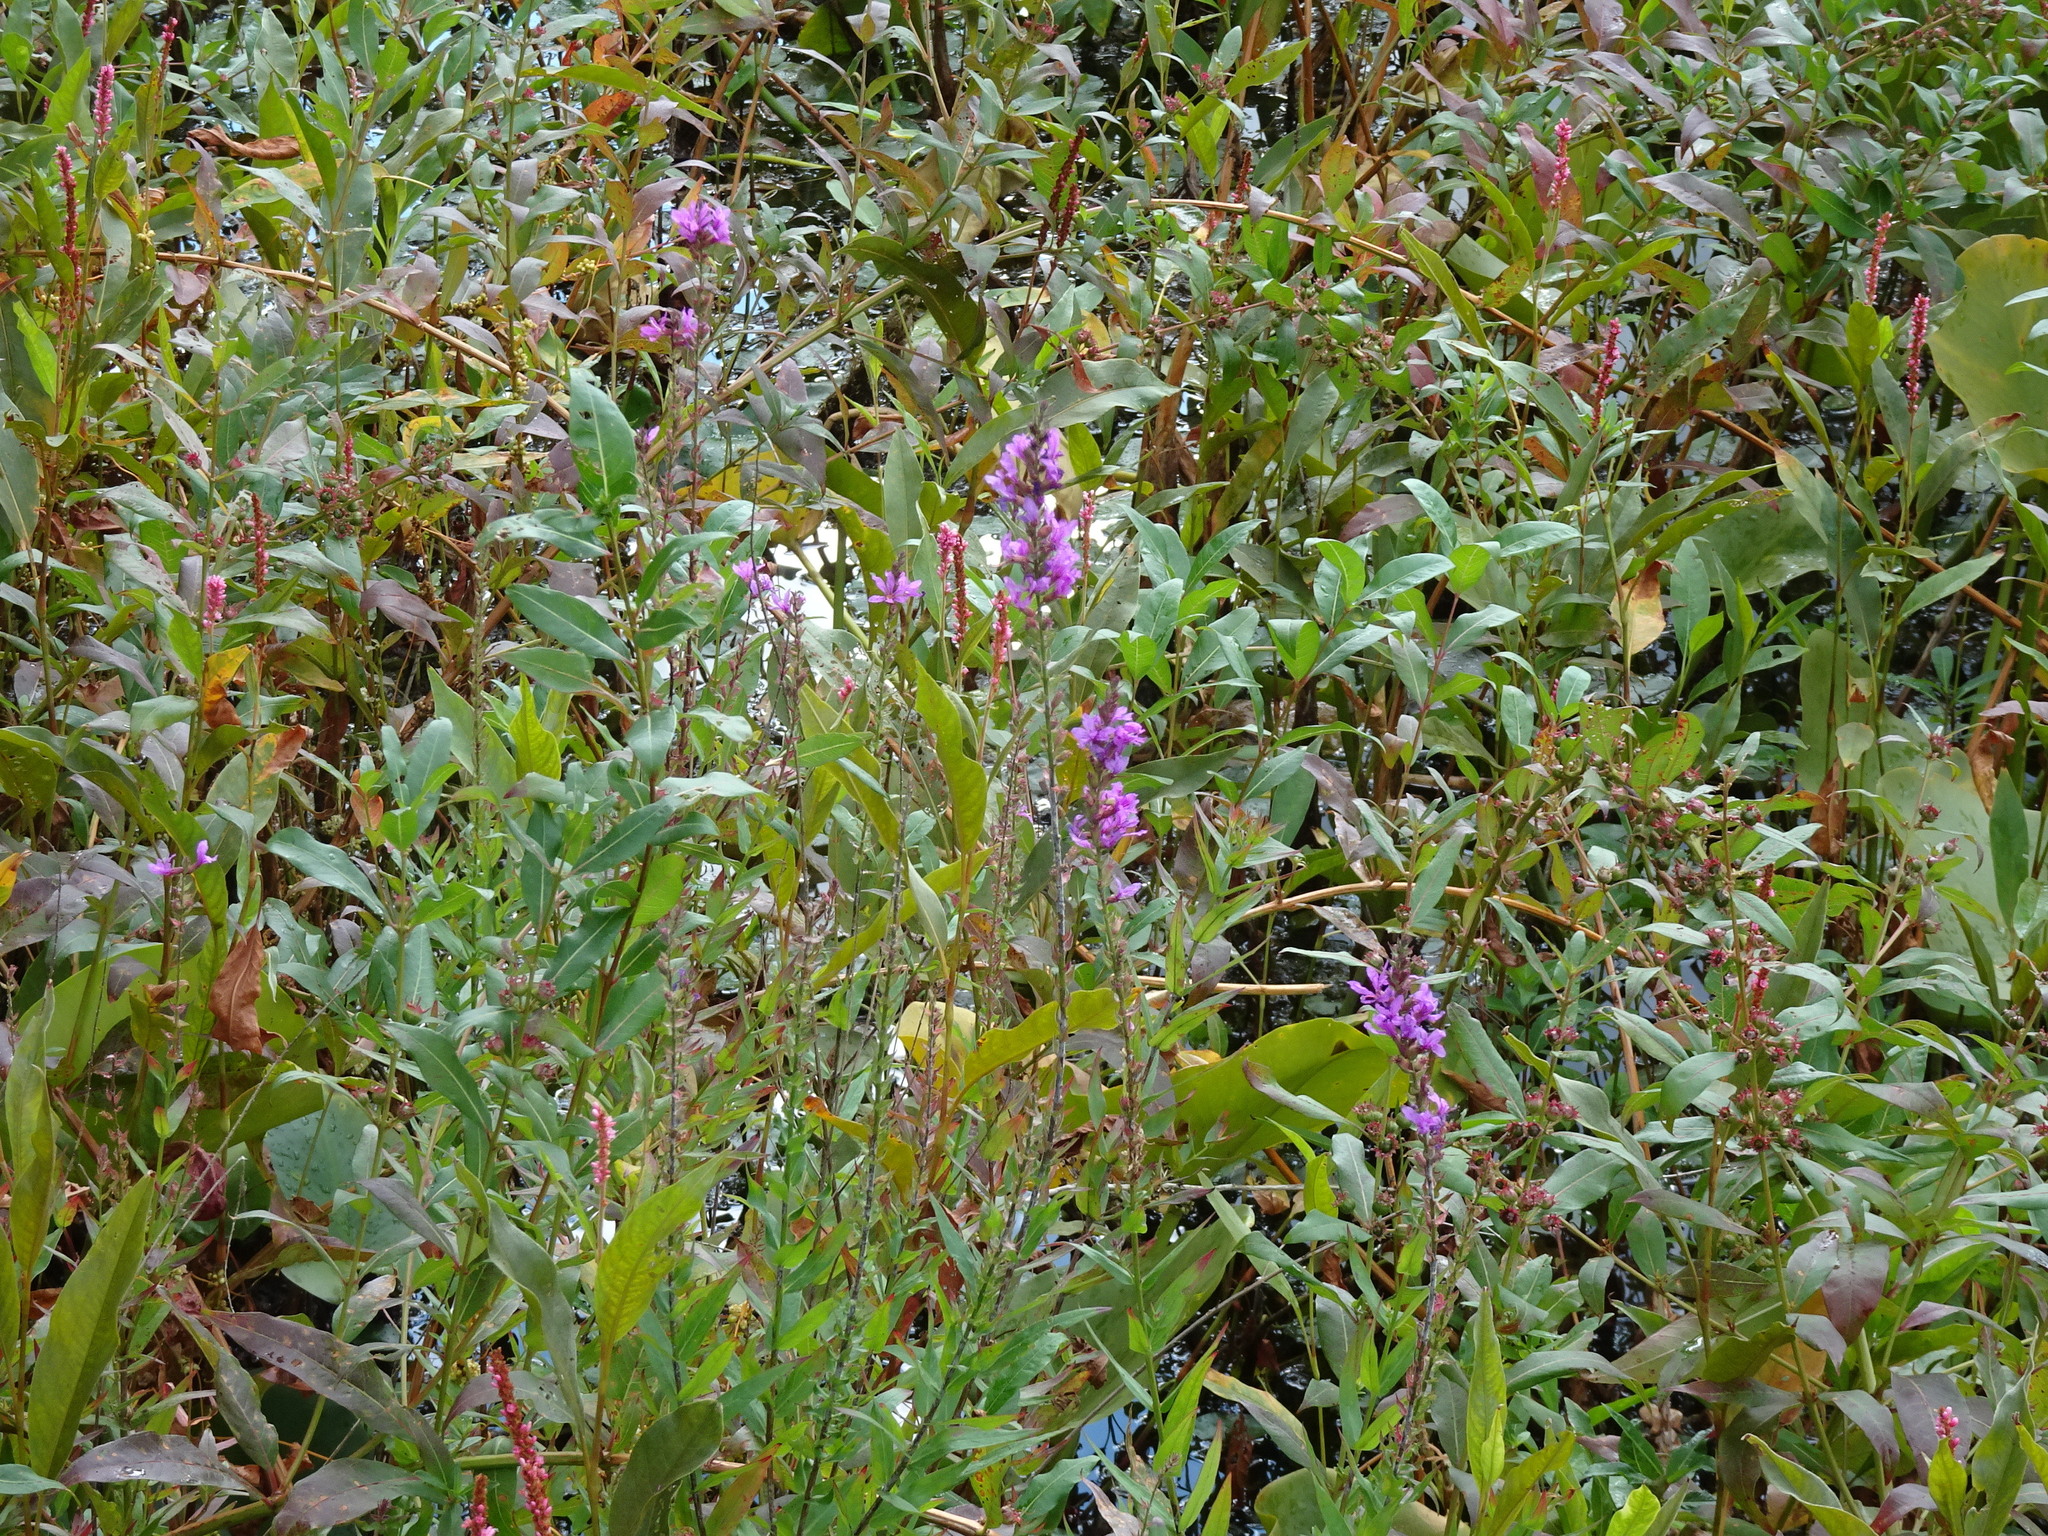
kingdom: Plantae
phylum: Tracheophyta
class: Magnoliopsida
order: Myrtales
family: Lythraceae
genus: Lythrum
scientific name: Lythrum salicaria
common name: Purple loosestrife
